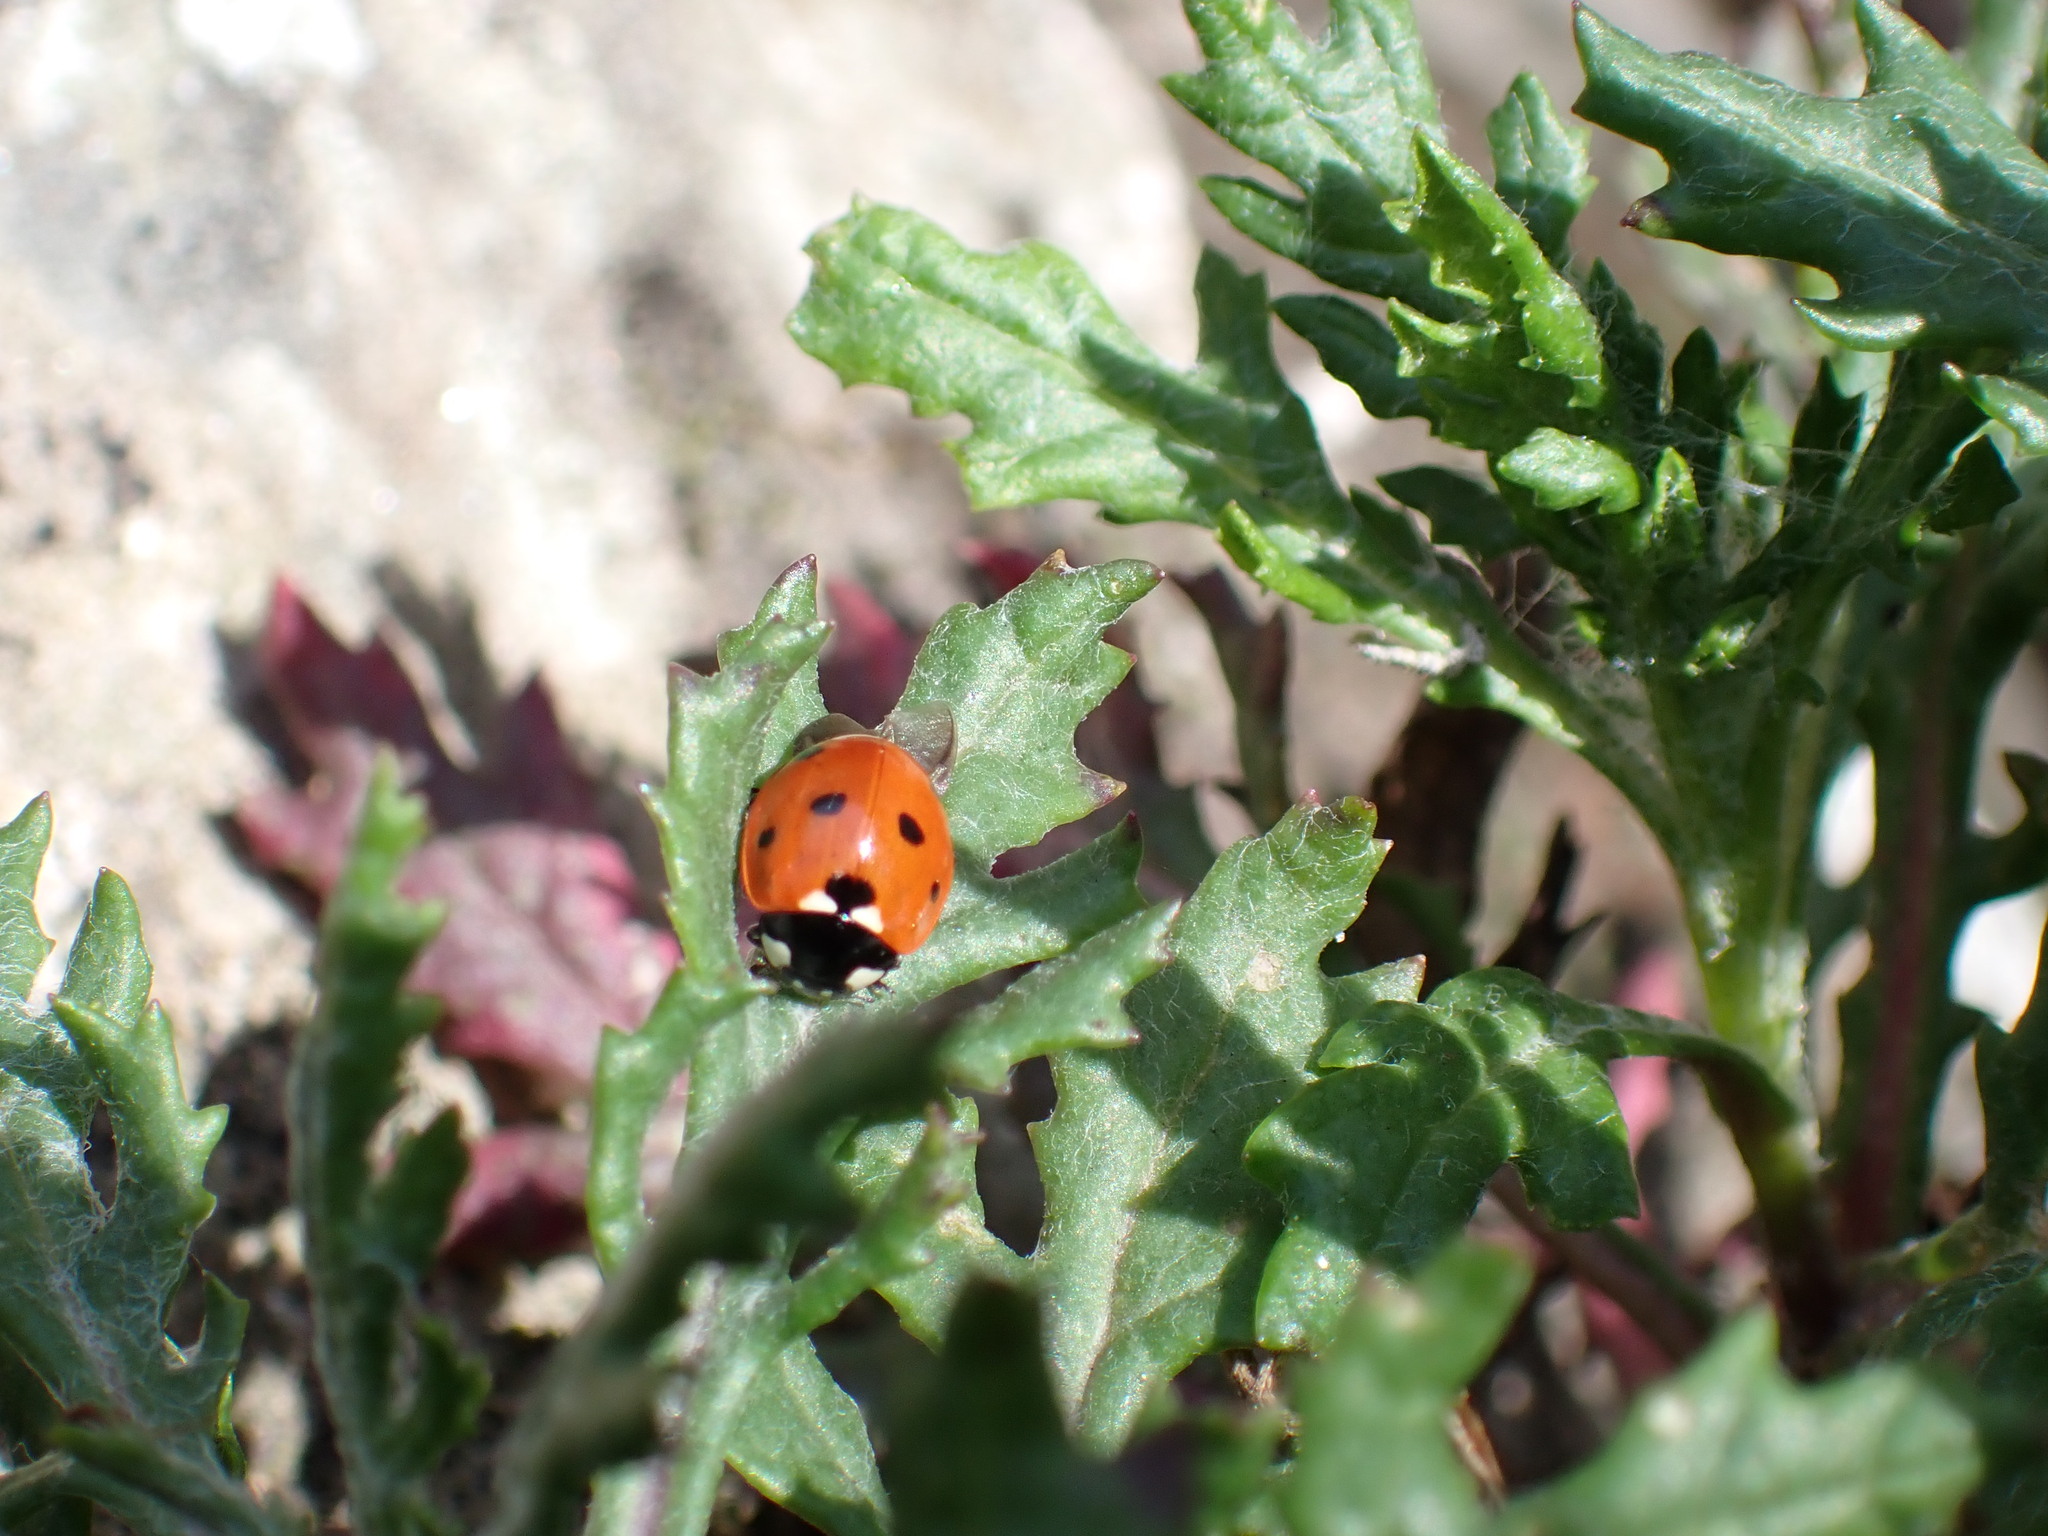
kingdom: Animalia
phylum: Arthropoda
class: Insecta
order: Coleoptera
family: Coccinellidae
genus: Coccinella
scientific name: Coccinella septempunctata
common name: Sevenspotted lady beetle
